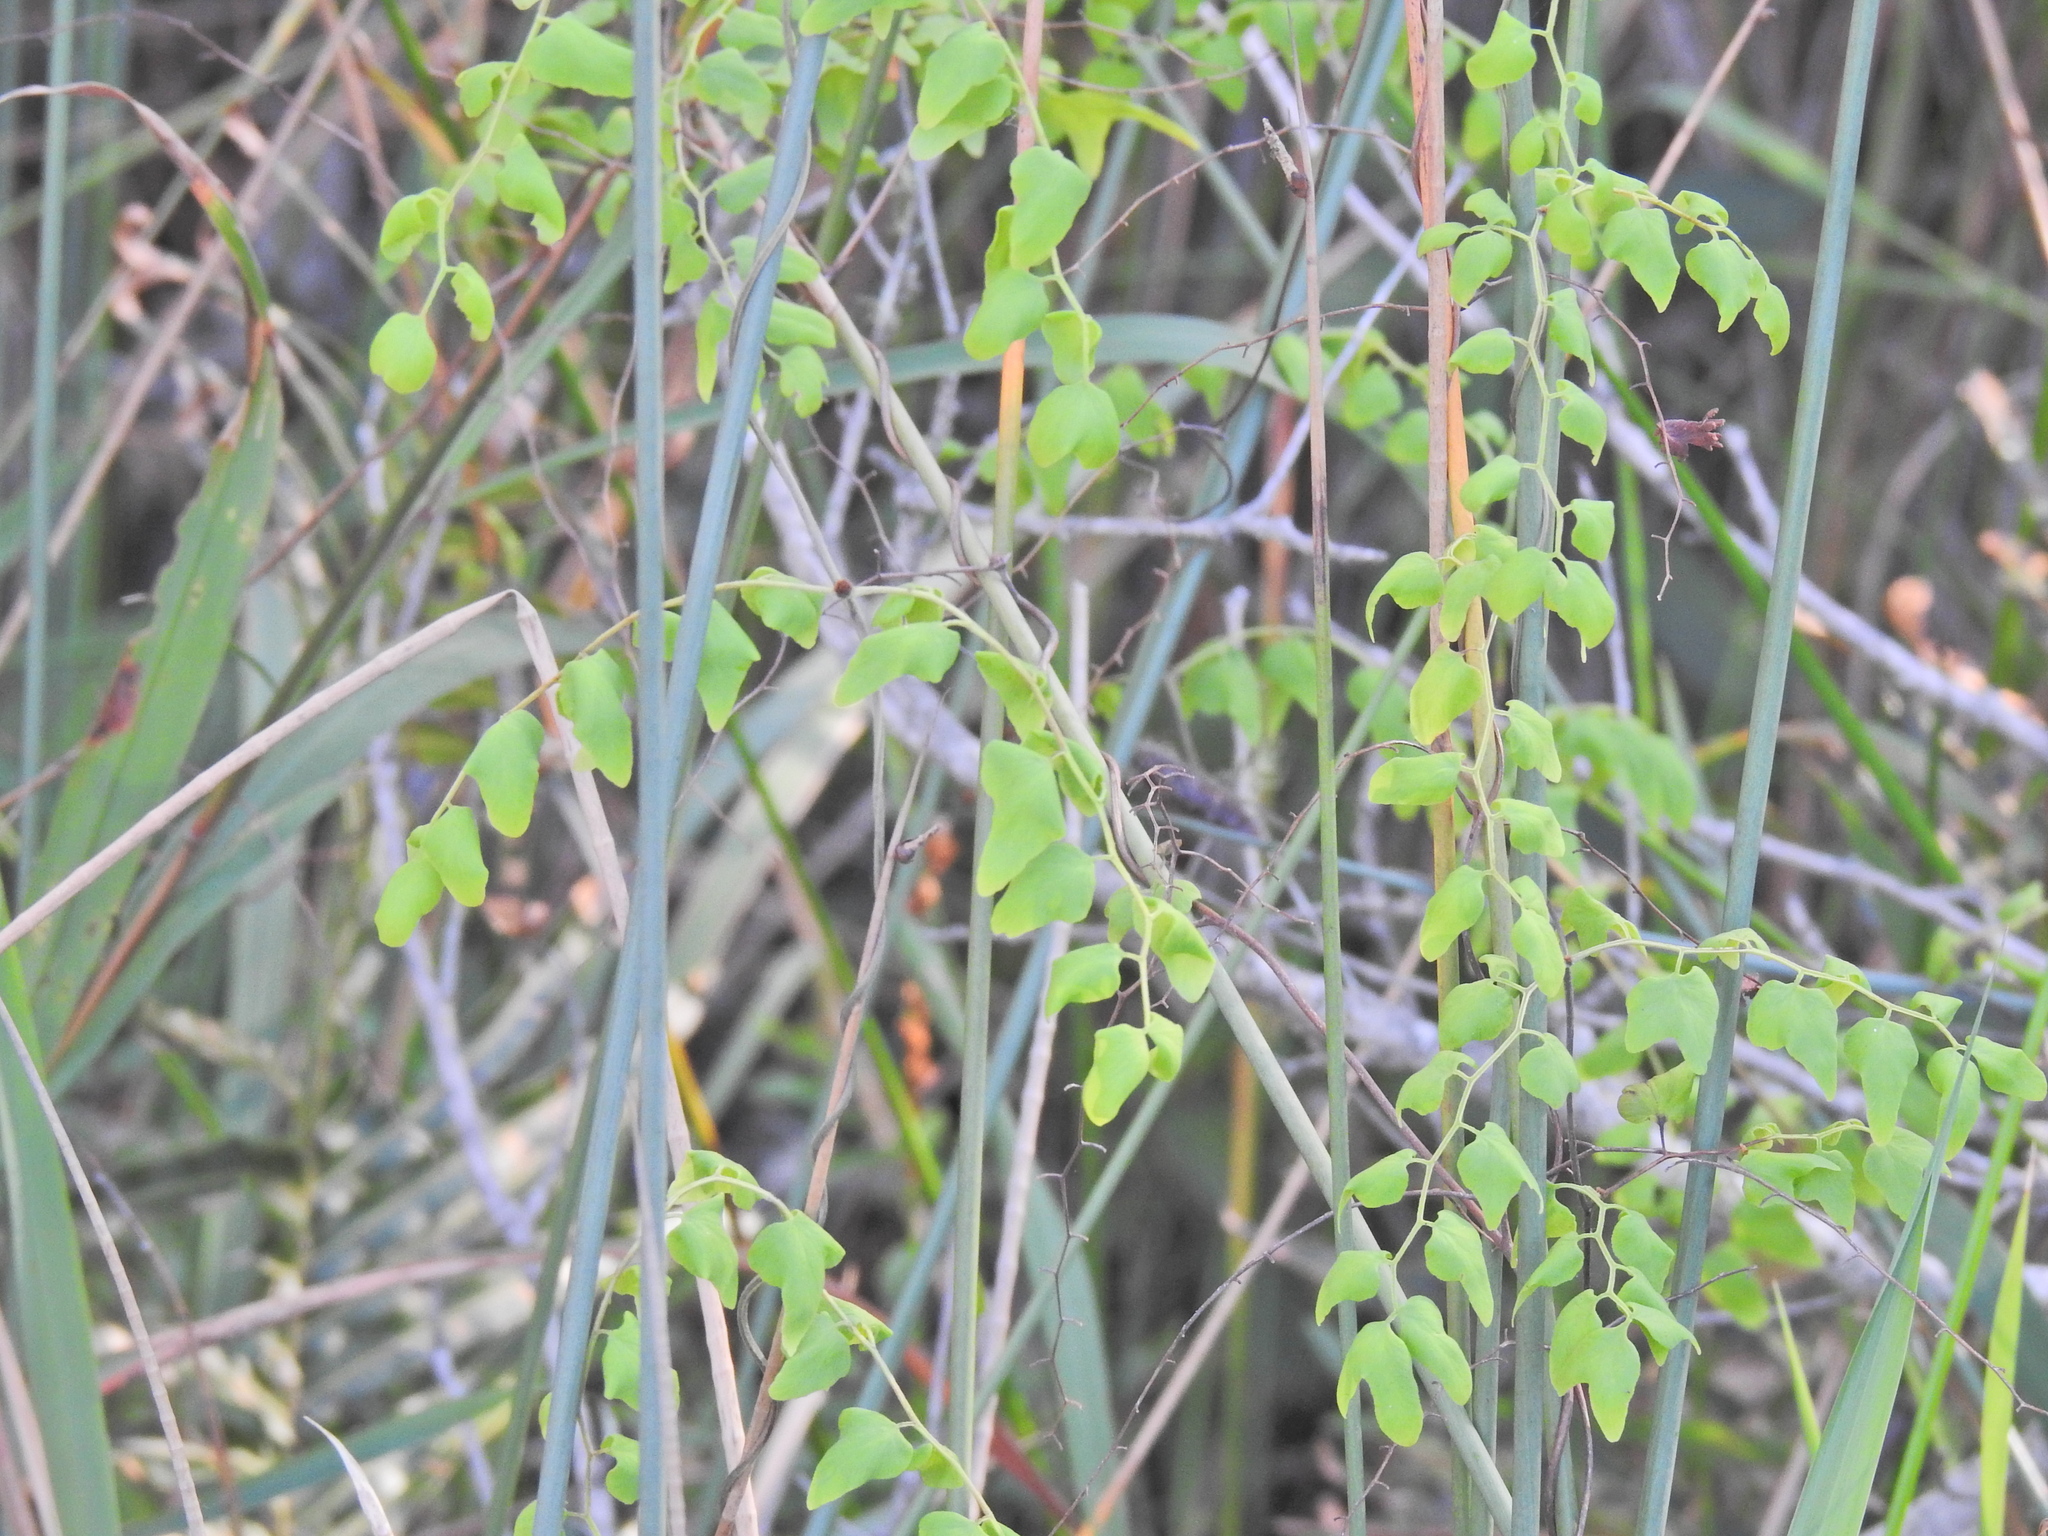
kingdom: Plantae
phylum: Tracheophyta
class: Polypodiopsida
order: Schizaeales
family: Lygodiaceae
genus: Lygodium
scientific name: Lygodium microphyllum
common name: Small-leaf climbing fern
